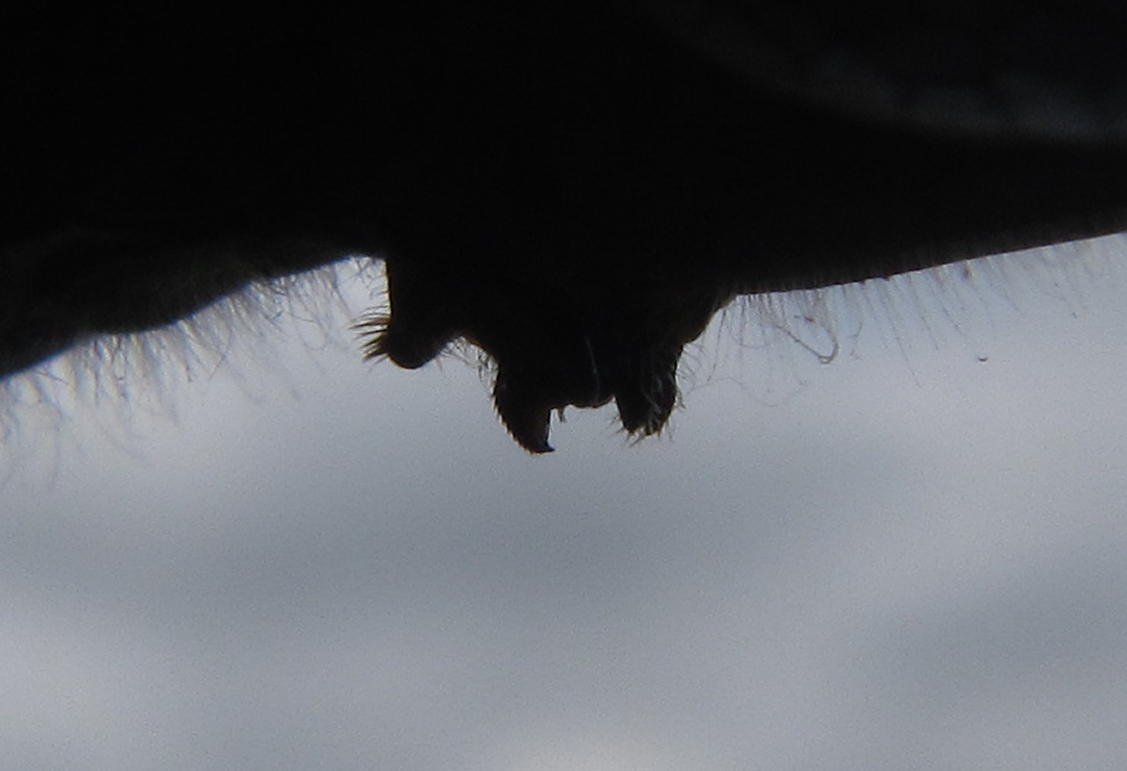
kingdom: Animalia
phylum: Arthropoda
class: Insecta
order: Odonata
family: Libellulidae
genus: Trithemis
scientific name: Trithemis furva
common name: Dark dropwing
